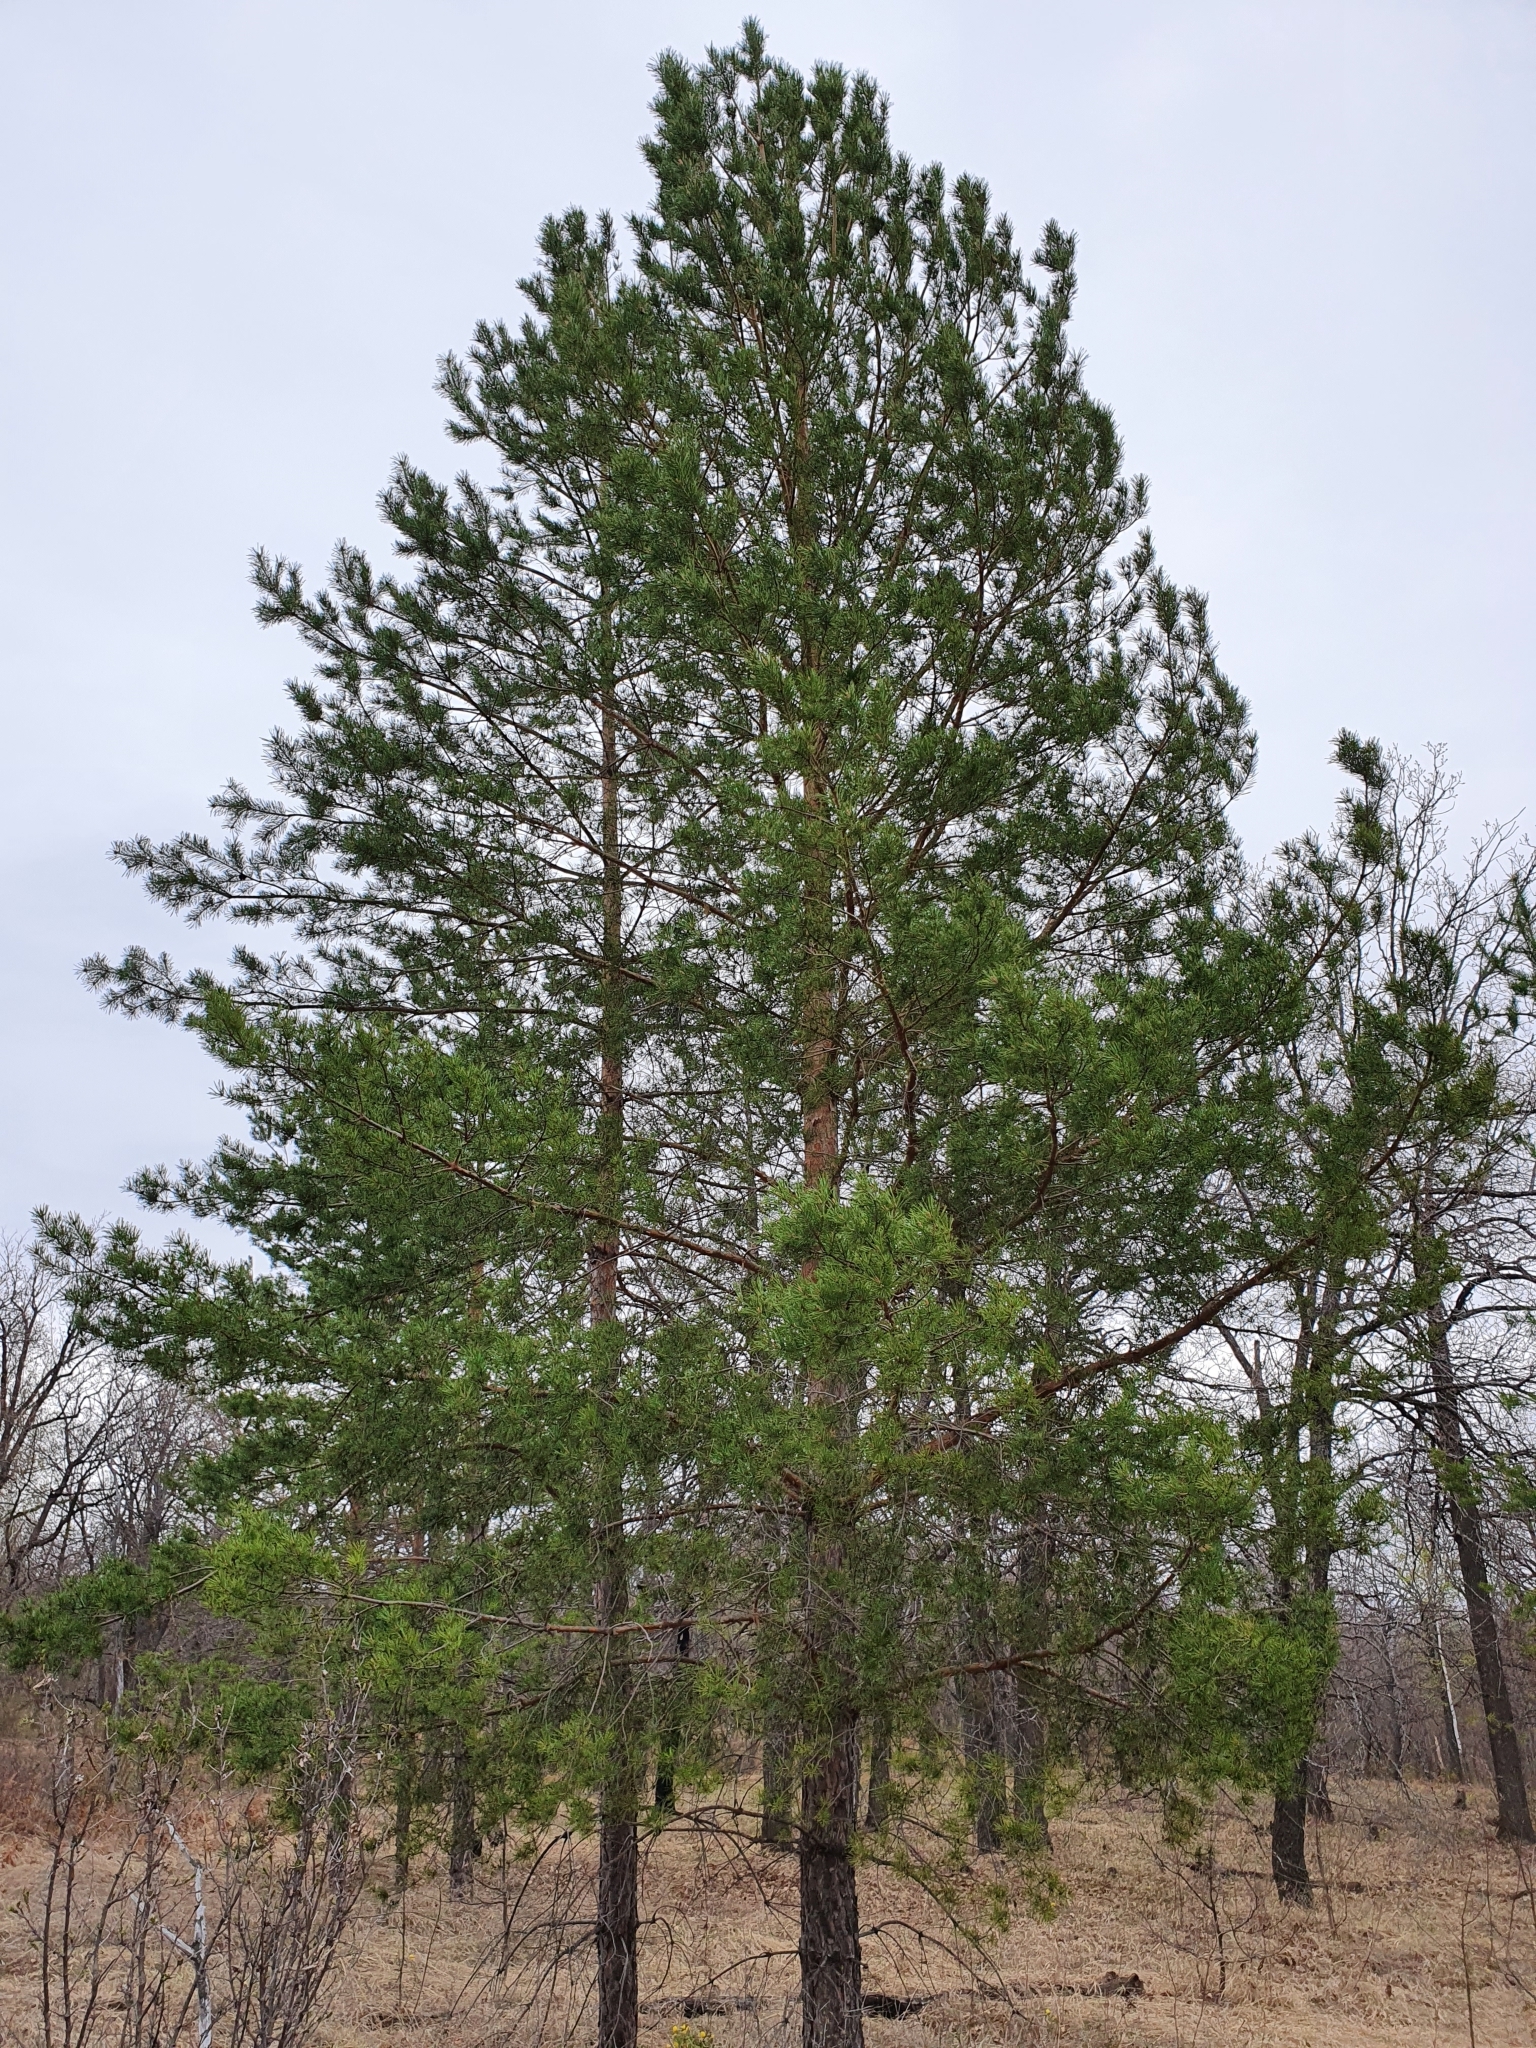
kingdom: Plantae
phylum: Tracheophyta
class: Pinopsida
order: Pinales
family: Pinaceae
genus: Pinus
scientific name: Pinus sylvestris
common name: Scots pine
